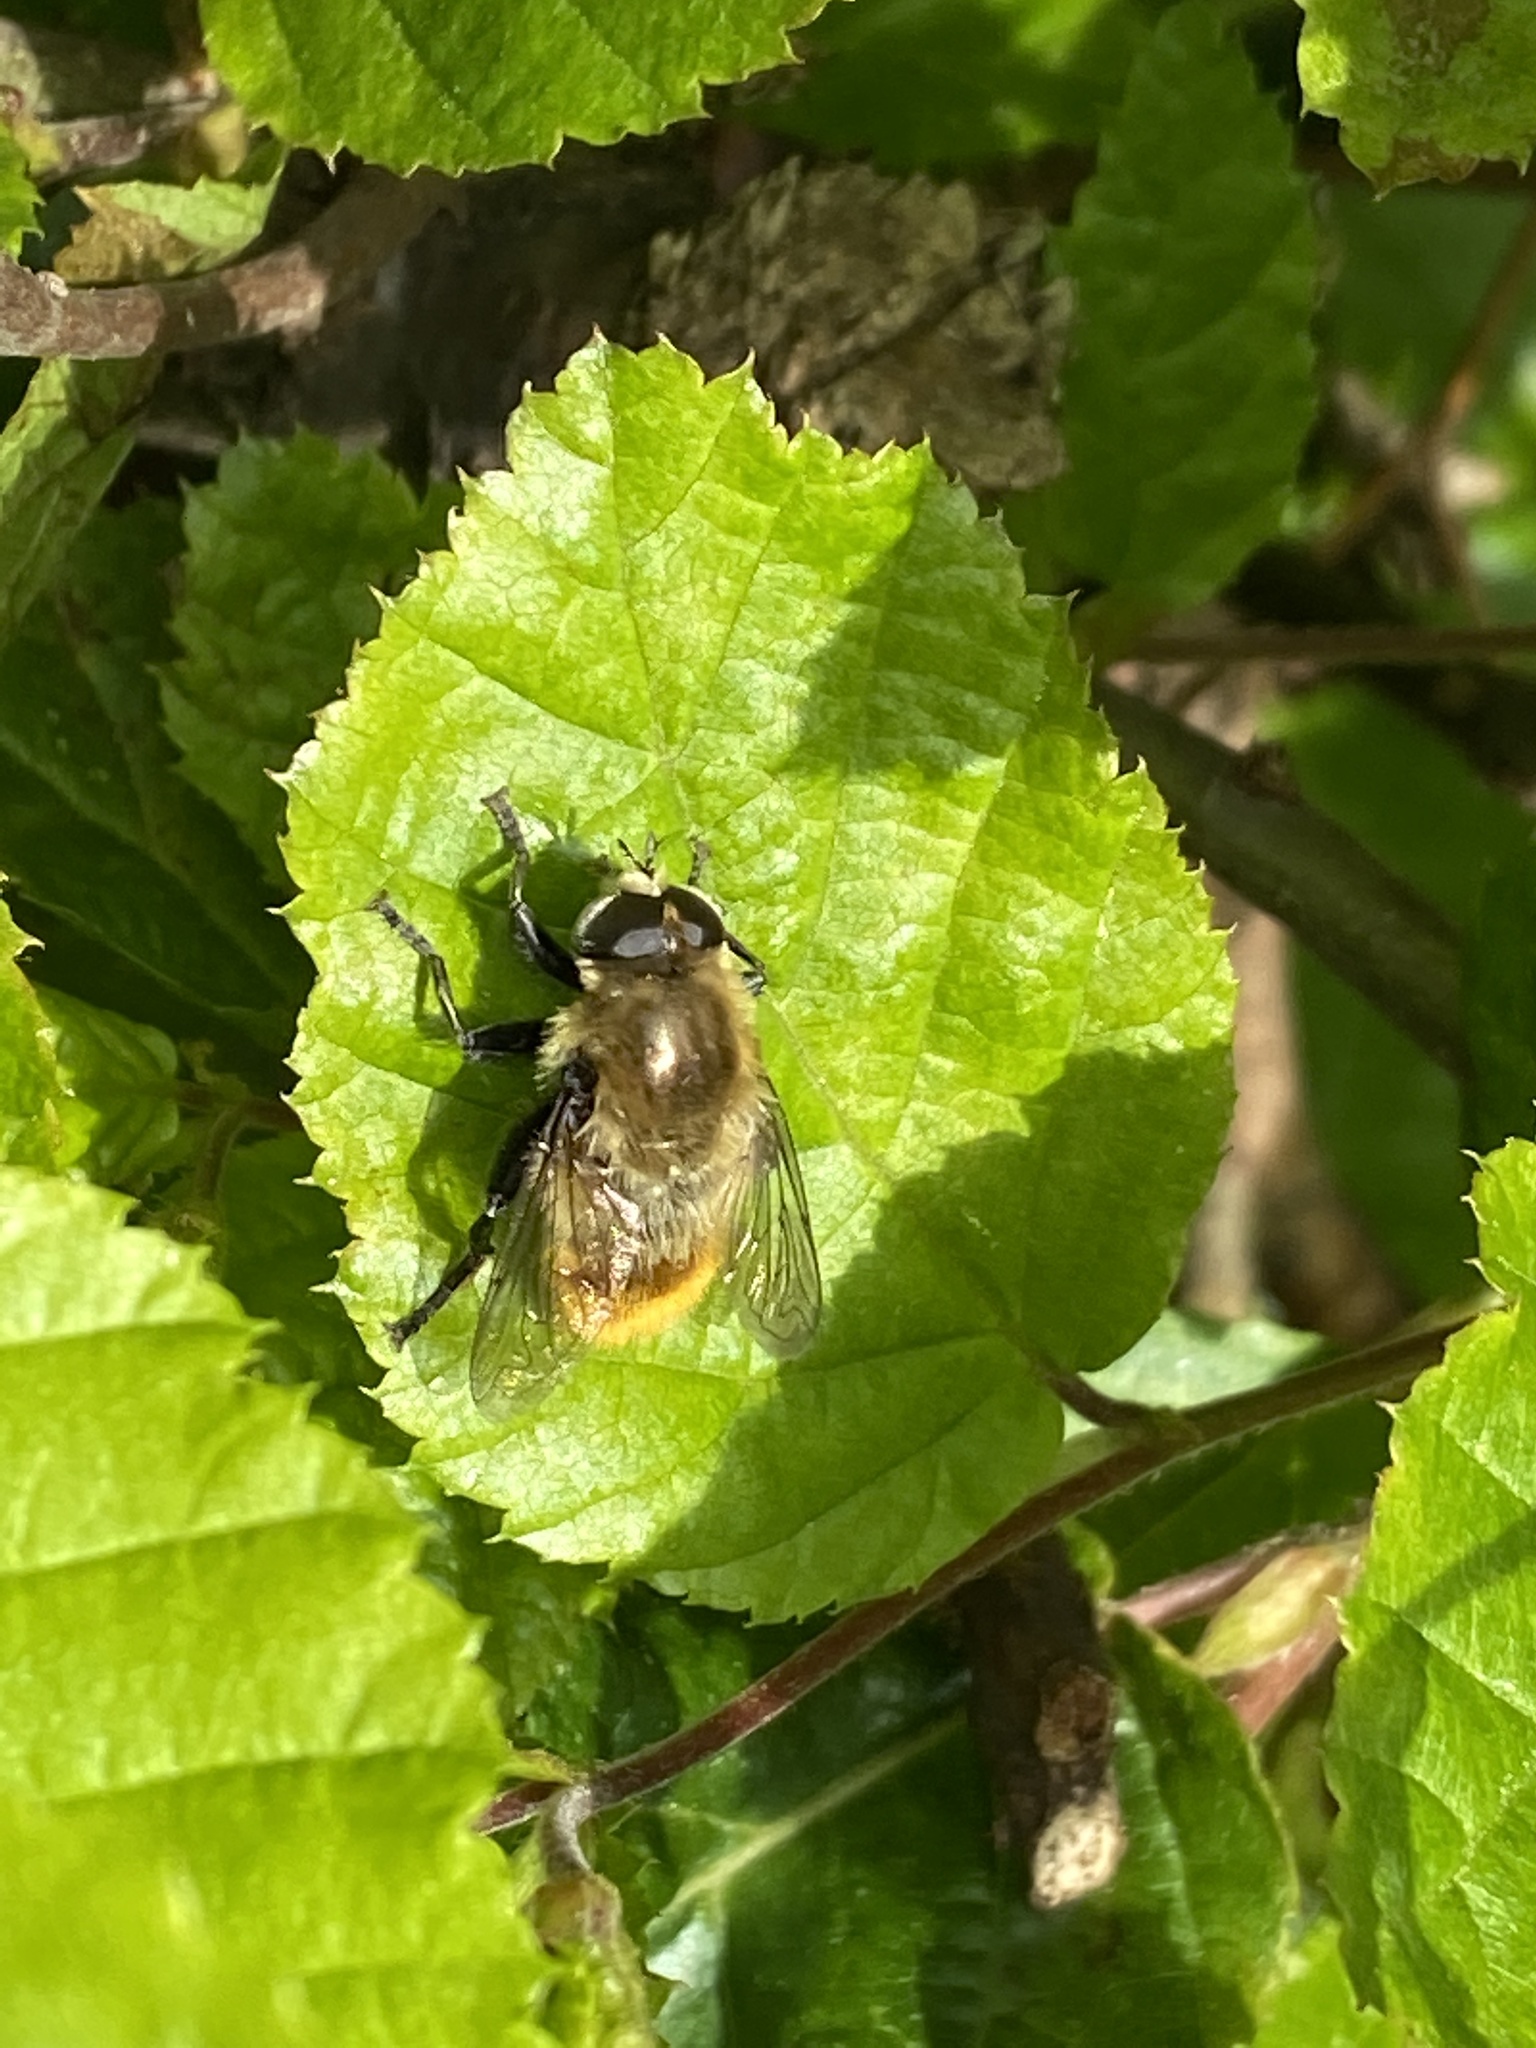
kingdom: Animalia
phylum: Arthropoda
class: Insecta
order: Diptera
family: Syrphidae
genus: Merodon
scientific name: Merodon equestris
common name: Greater bulb-fly
